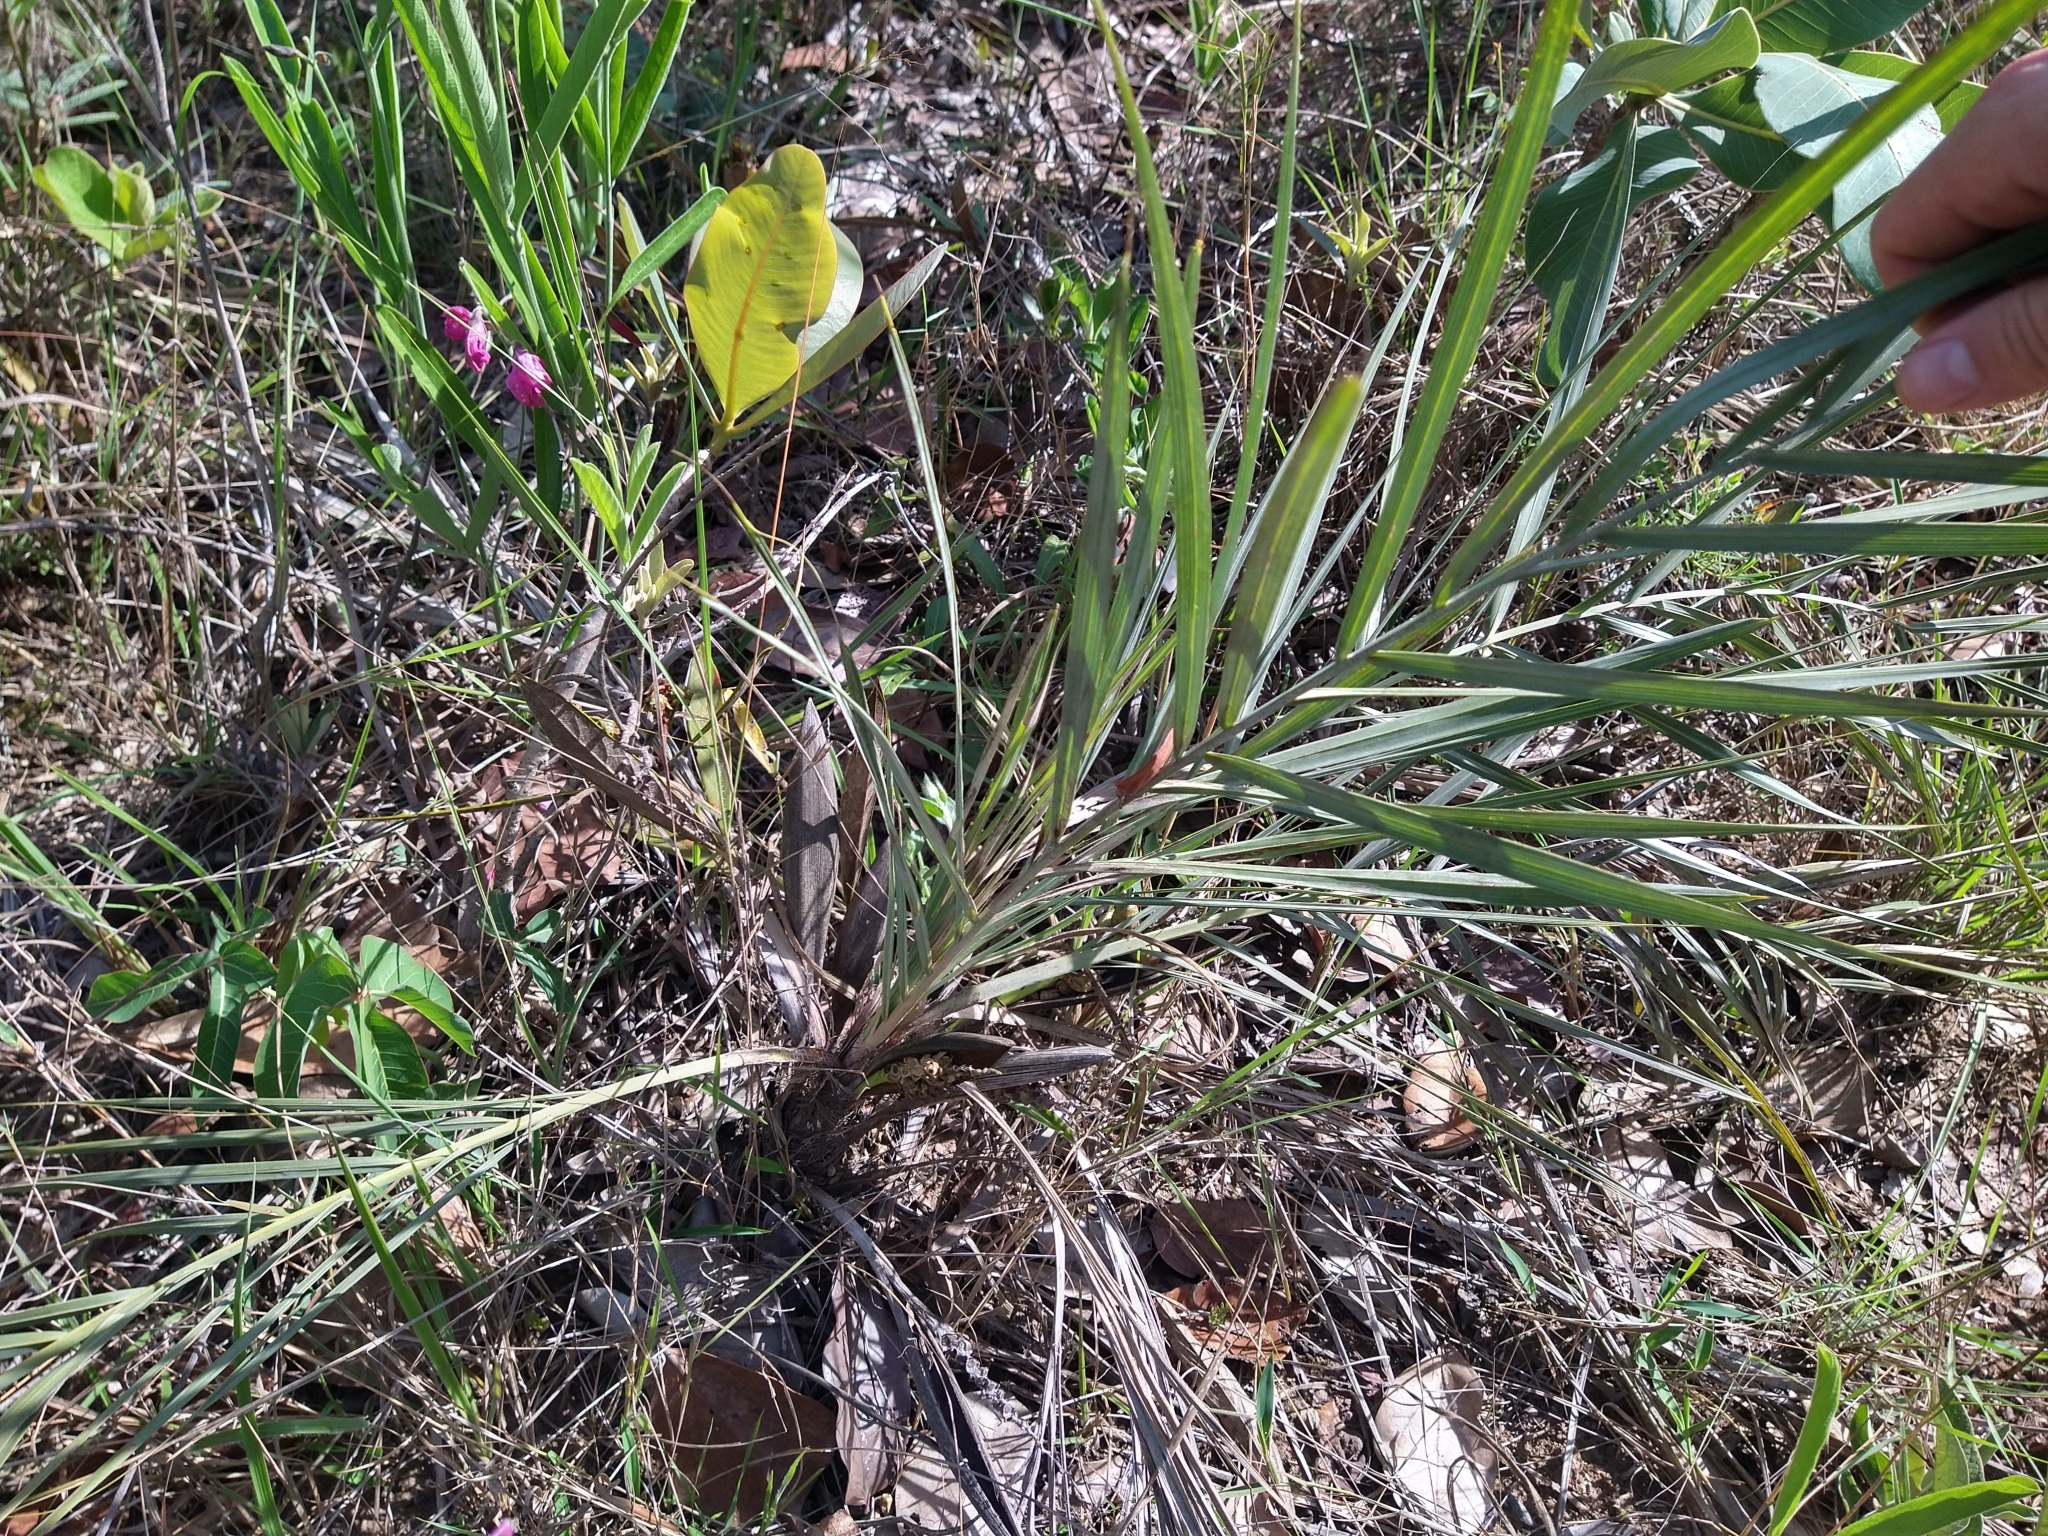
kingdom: Plantae
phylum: Tracheophyta
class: Liliopsida
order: Arecales
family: Arecaceae
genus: Syagrus
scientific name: Syagrus glazioviana
